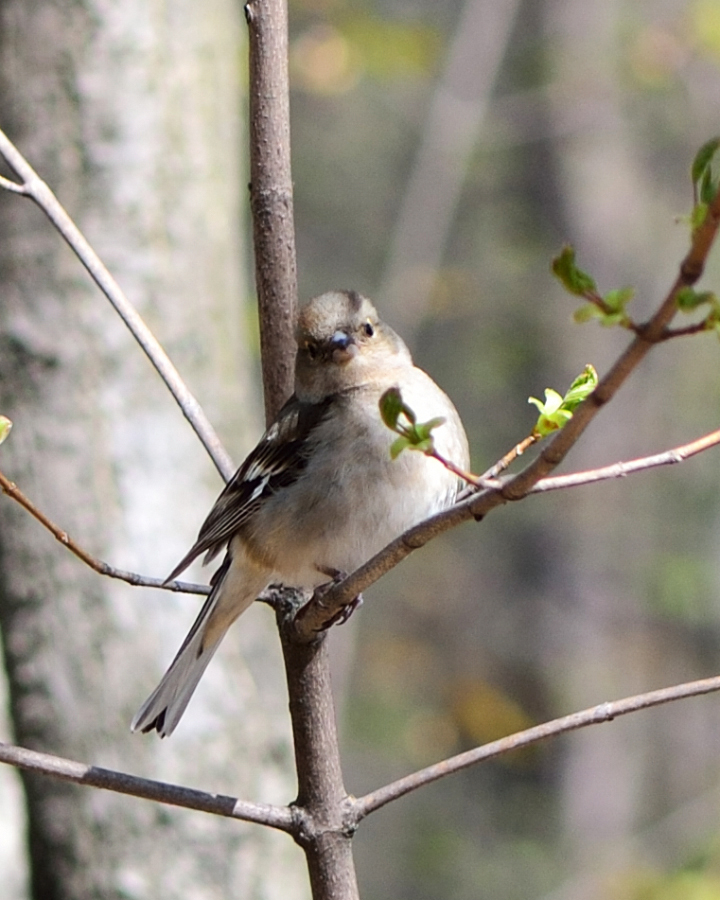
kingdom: Animalia
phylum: Chordata
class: Aves
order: Passeriformes
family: Fringillidae
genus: Fringilla
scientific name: Fringilla coelebs
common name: Common chaffinch
